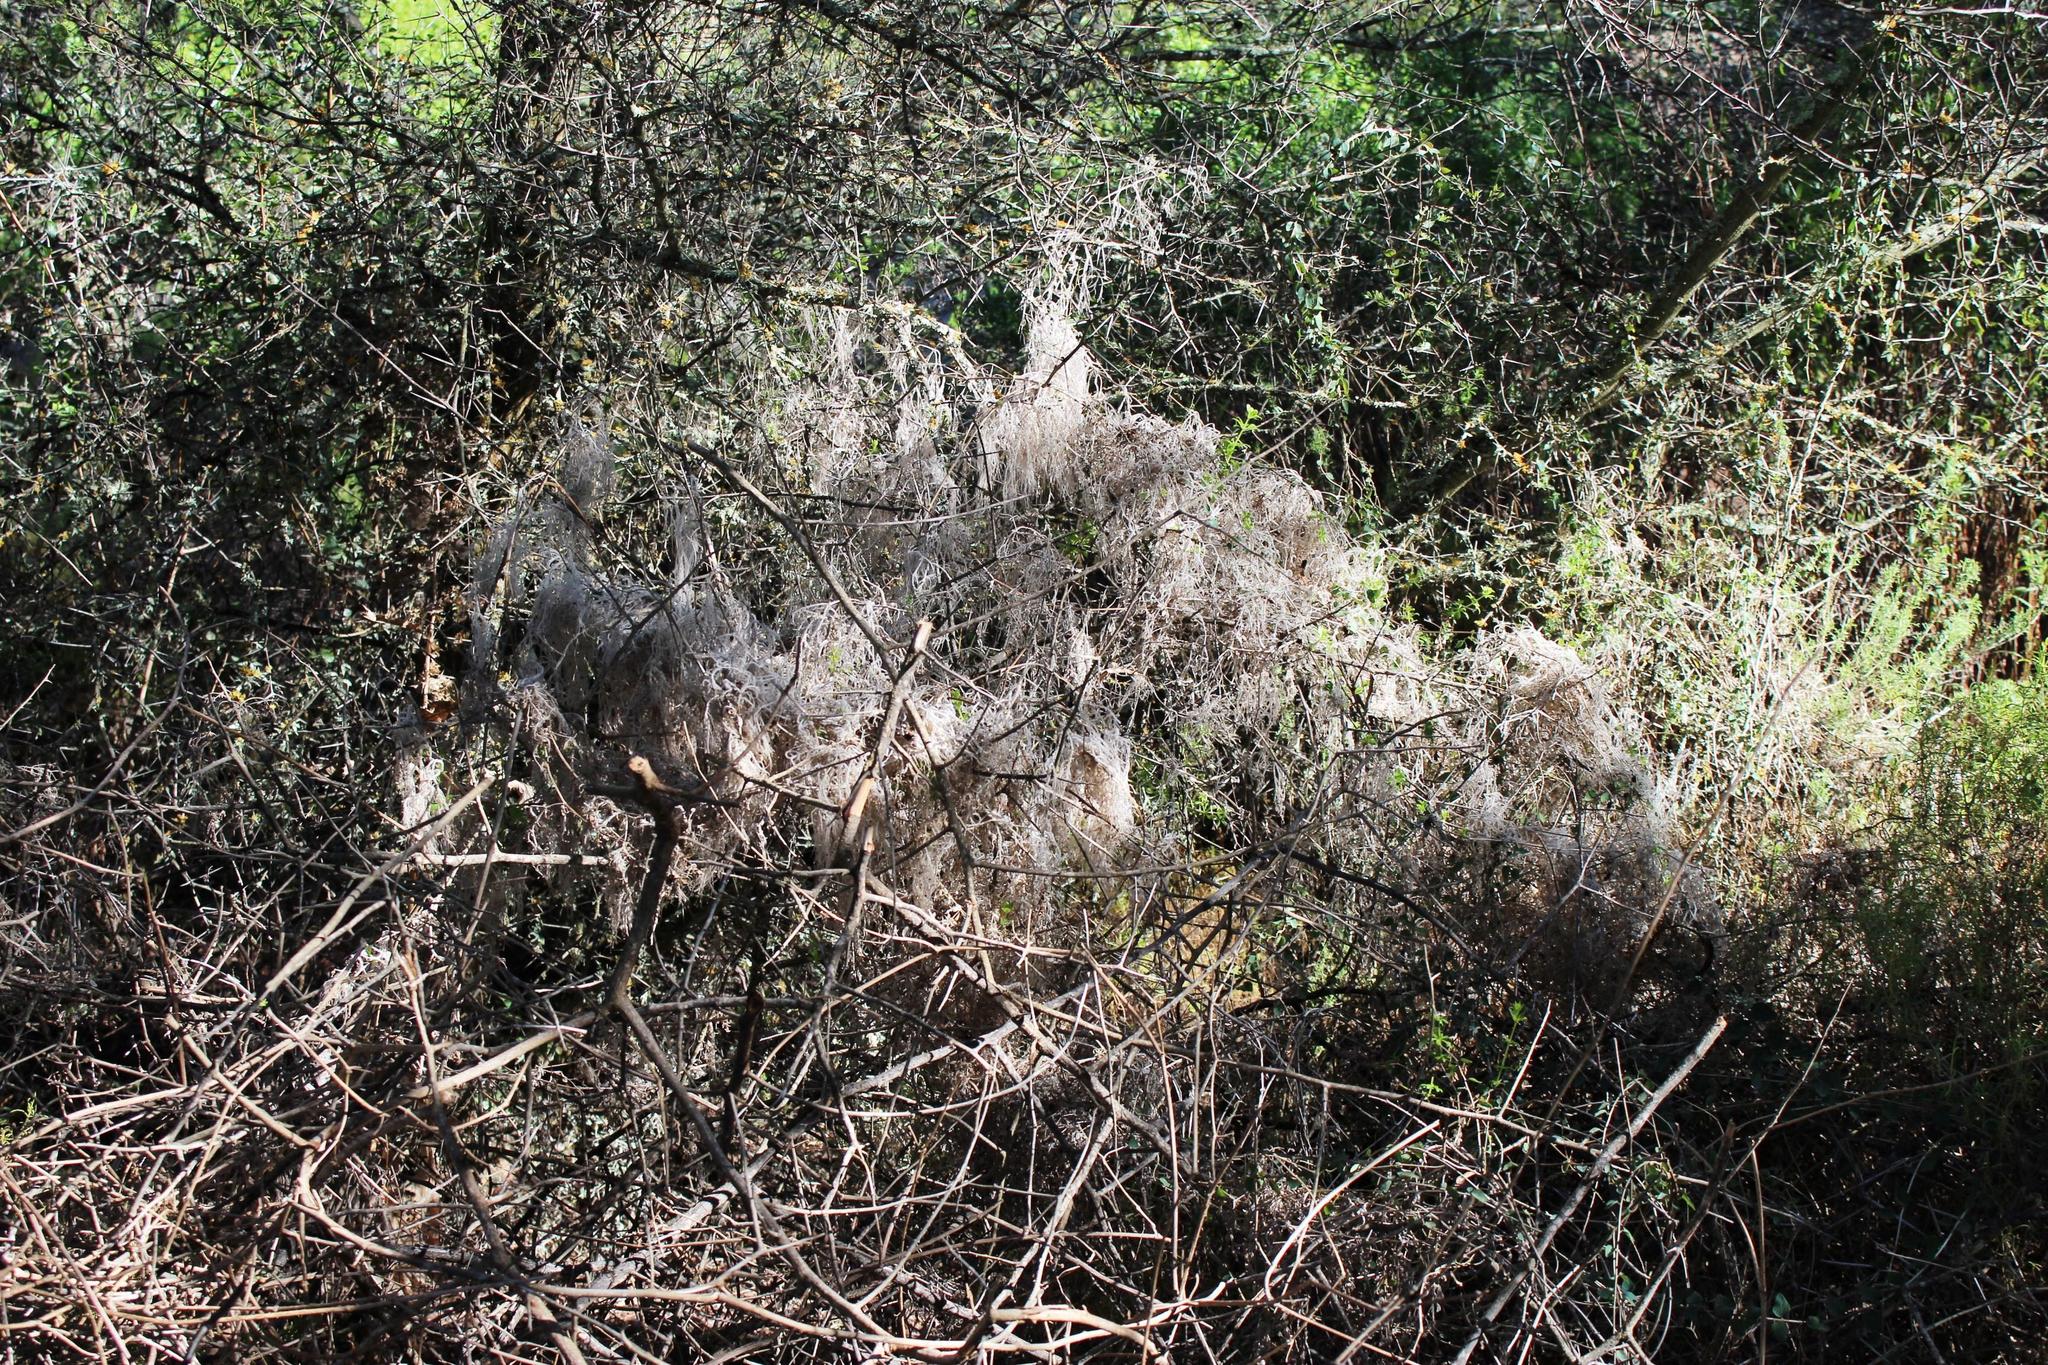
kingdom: Plantae
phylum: Tracheophyta
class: Magnoliopsida
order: Gentianales
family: Rubiaceae
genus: Galium
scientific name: Galium tomentosum
